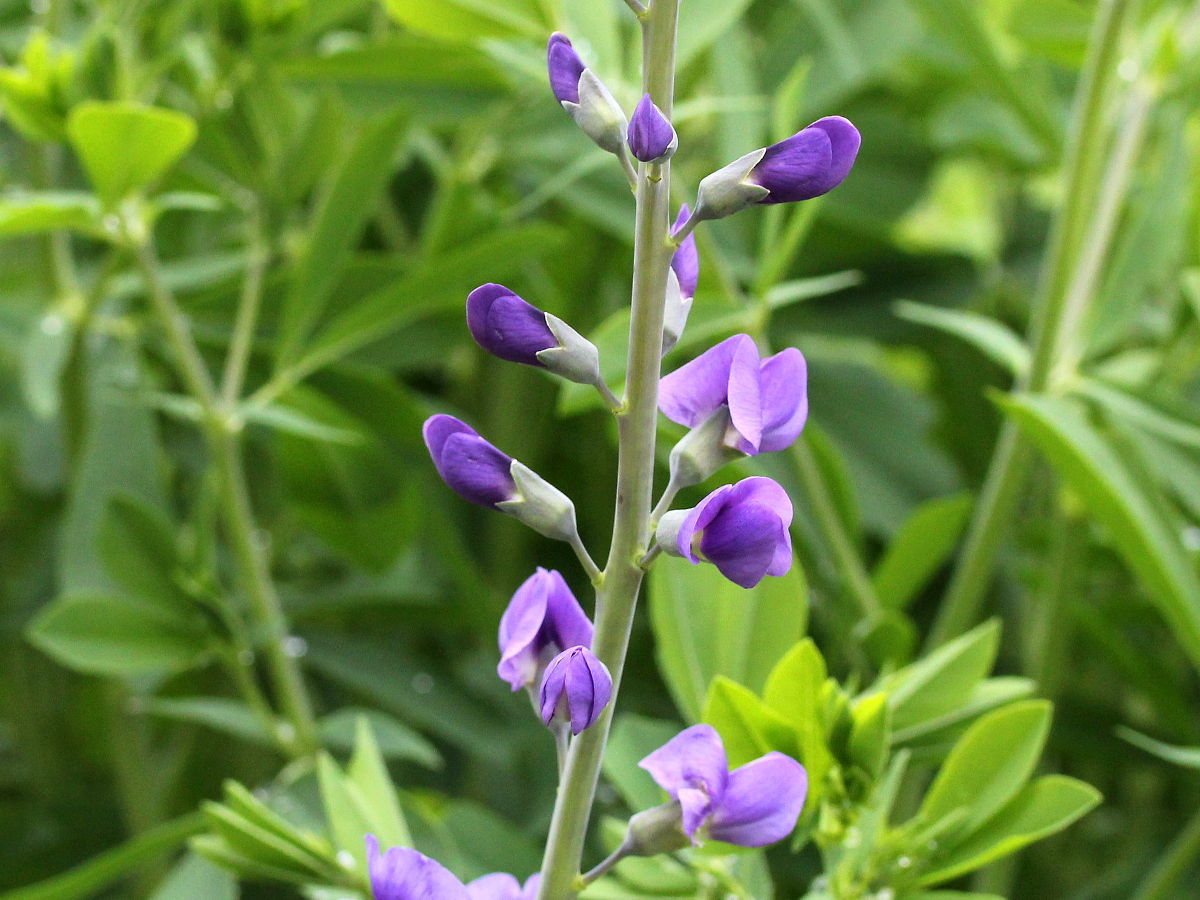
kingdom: Plantae
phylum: Tracheophyta
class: Magnoliopsida
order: Fabales
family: Fabaceae
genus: Baptisia
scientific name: Baptisia australis
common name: Blue false indigo
